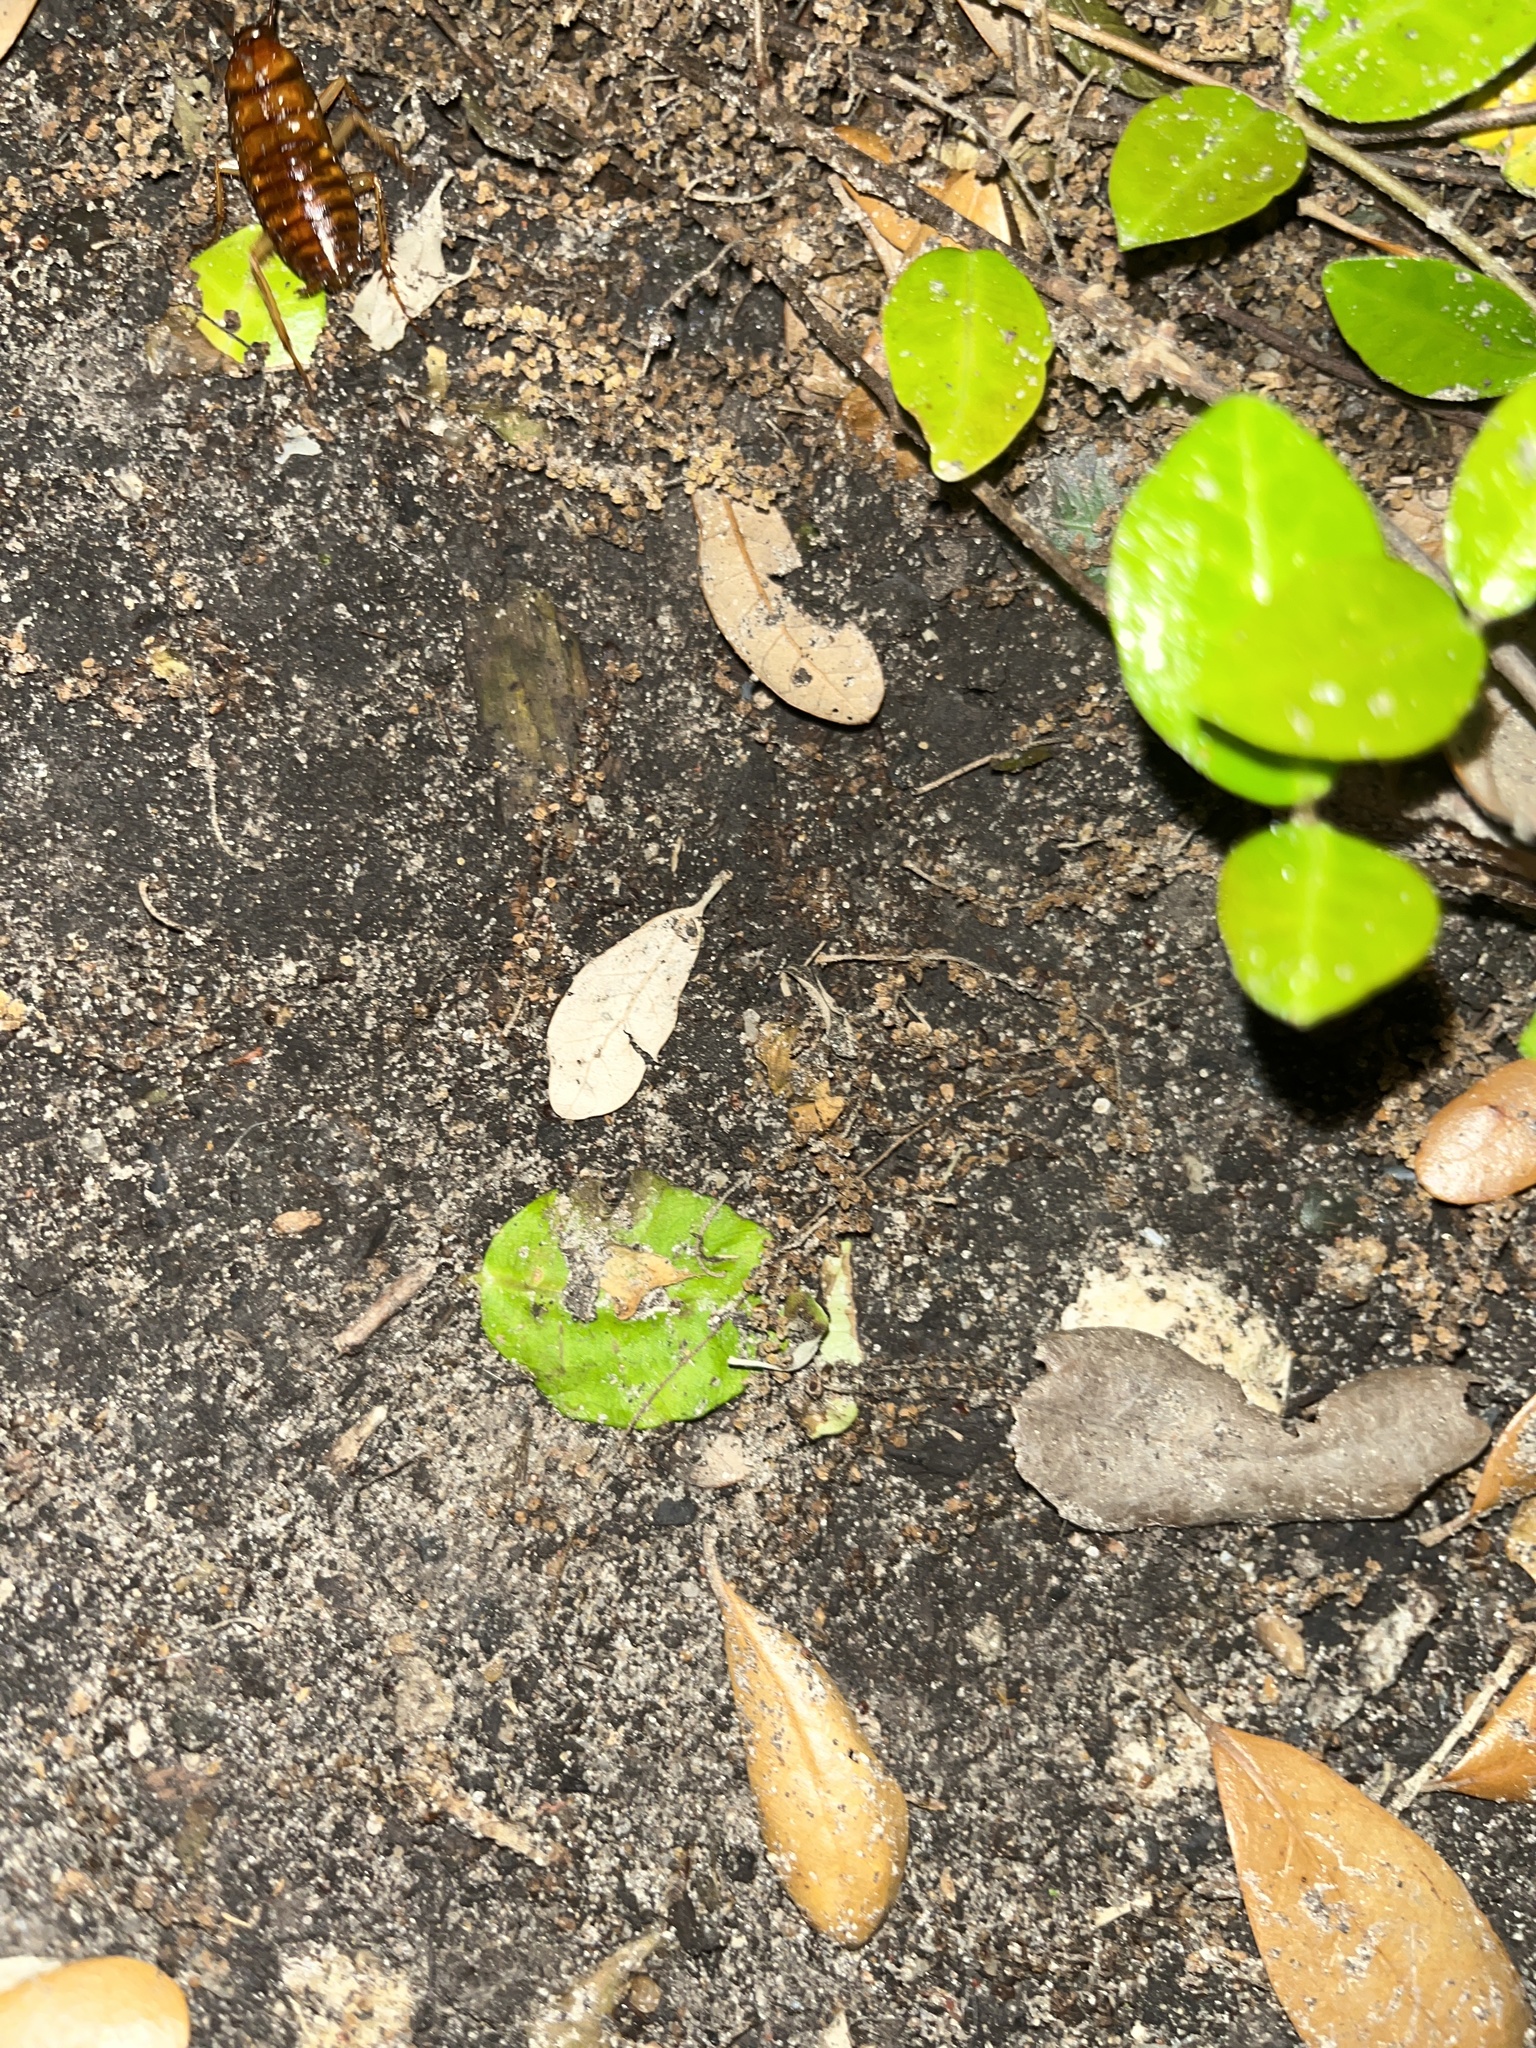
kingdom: Animalia
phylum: Arthropoda
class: Insecta
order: Blattodea
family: Blattidae
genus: Periplaneta
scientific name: Periplaneta americana
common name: American cockroach
